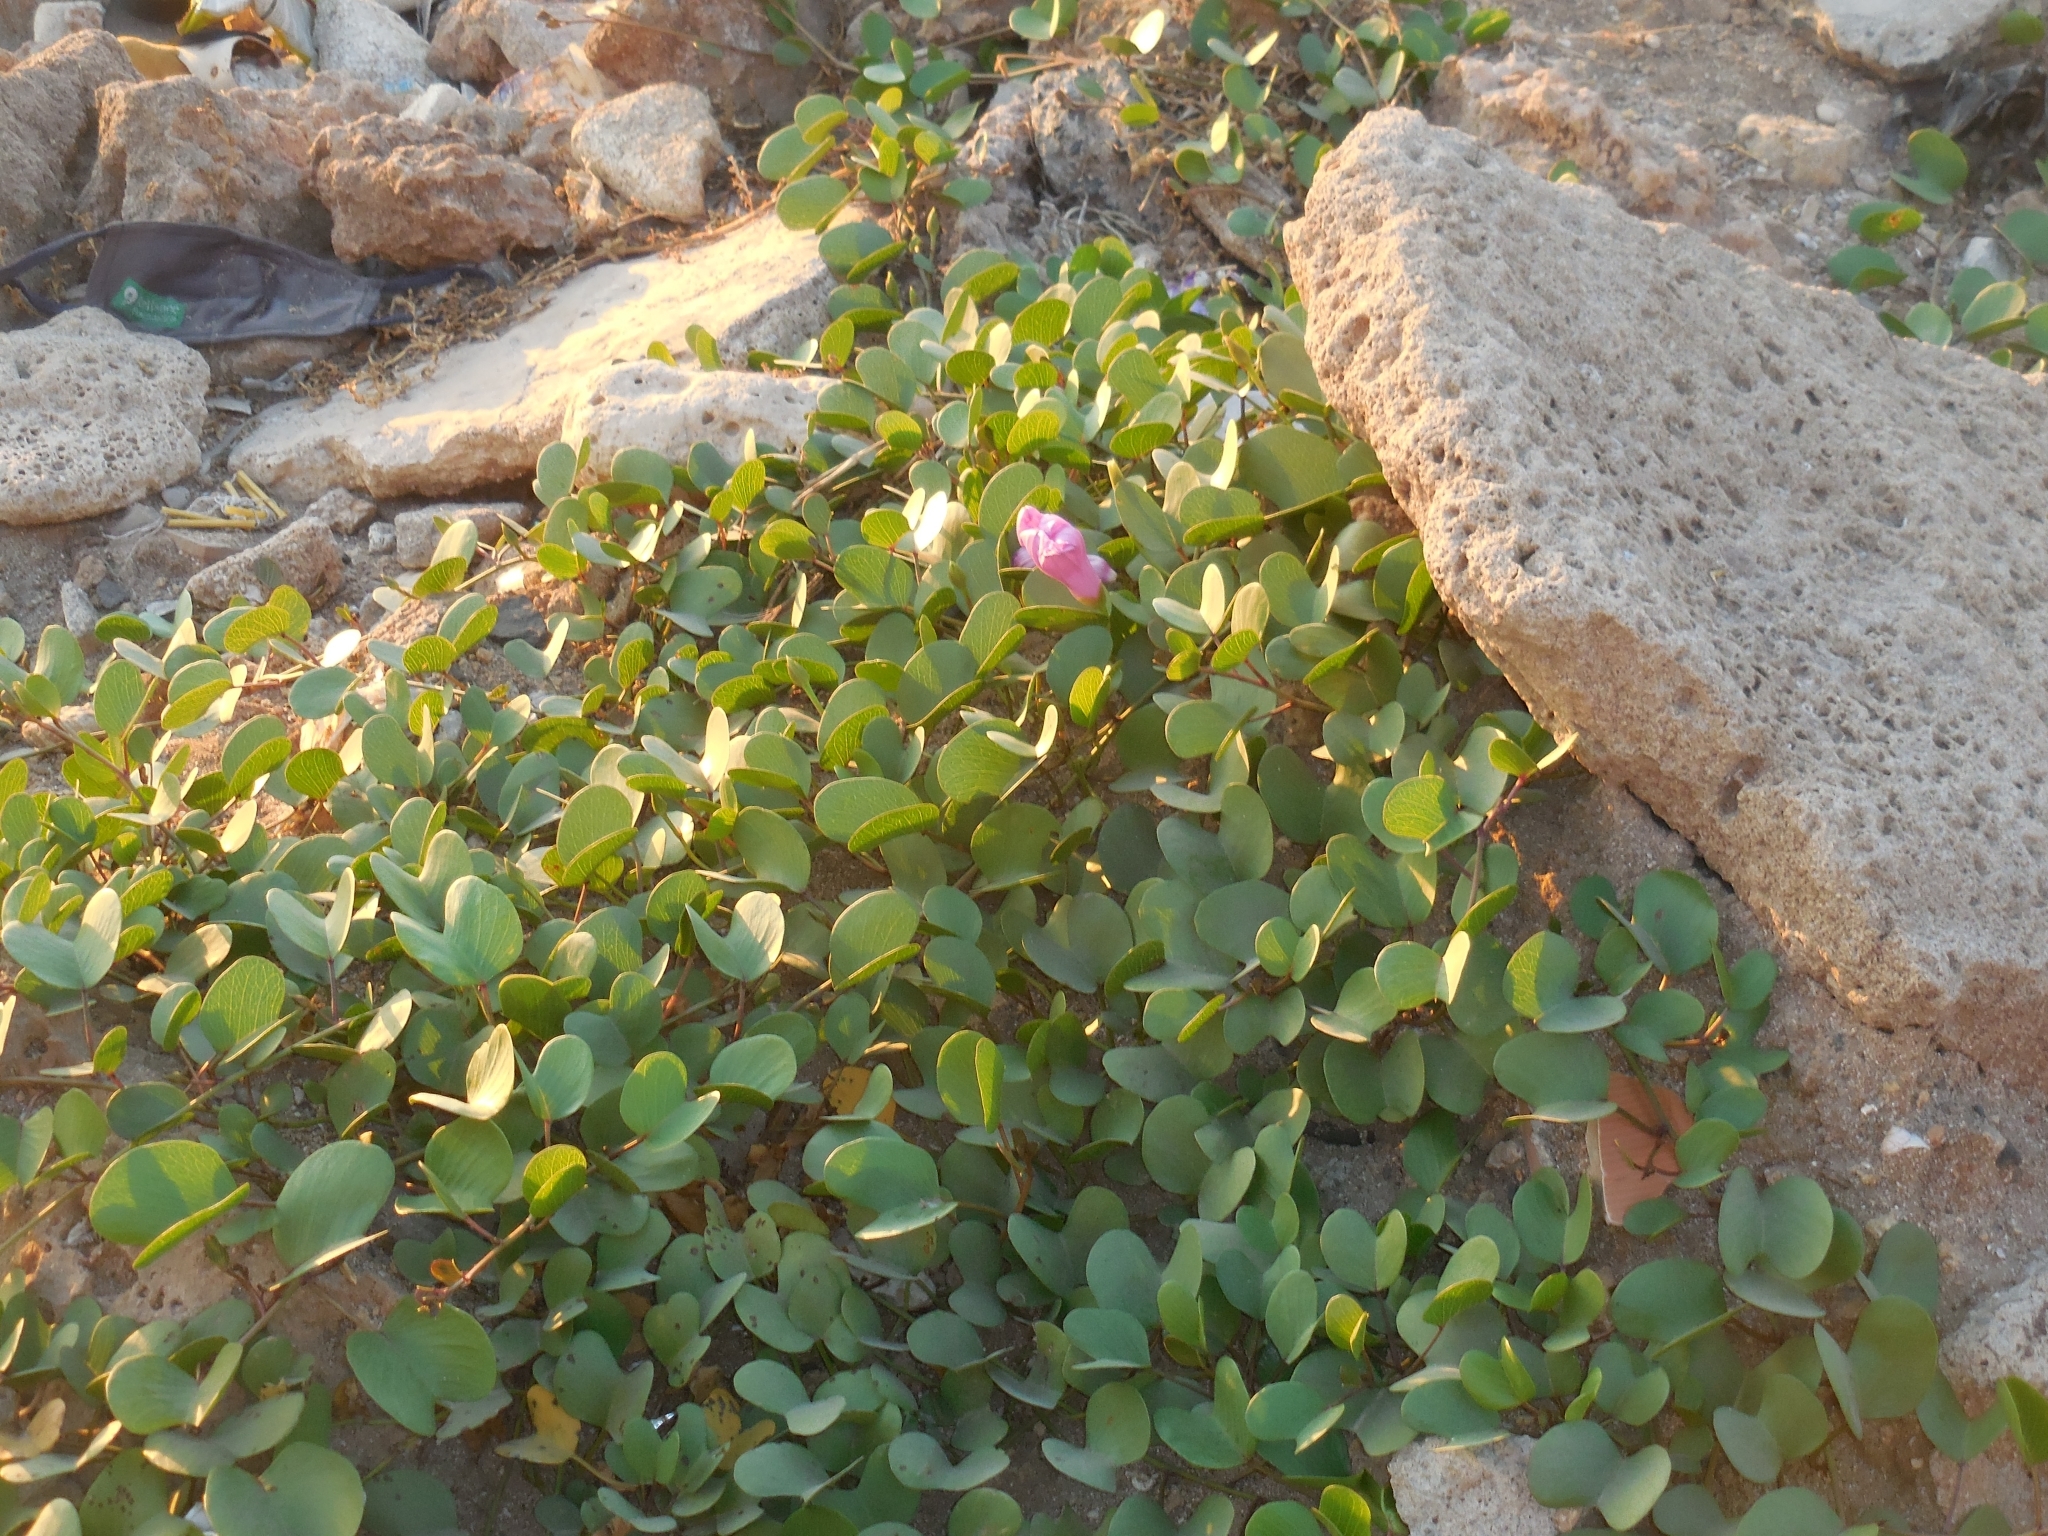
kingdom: Plantae
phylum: Tracheophyta
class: Magnoliopsida
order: Solanales
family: Convolvulaceae
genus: Ipomoea
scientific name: Ipomoea pes-caprae
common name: Beach morning glory
